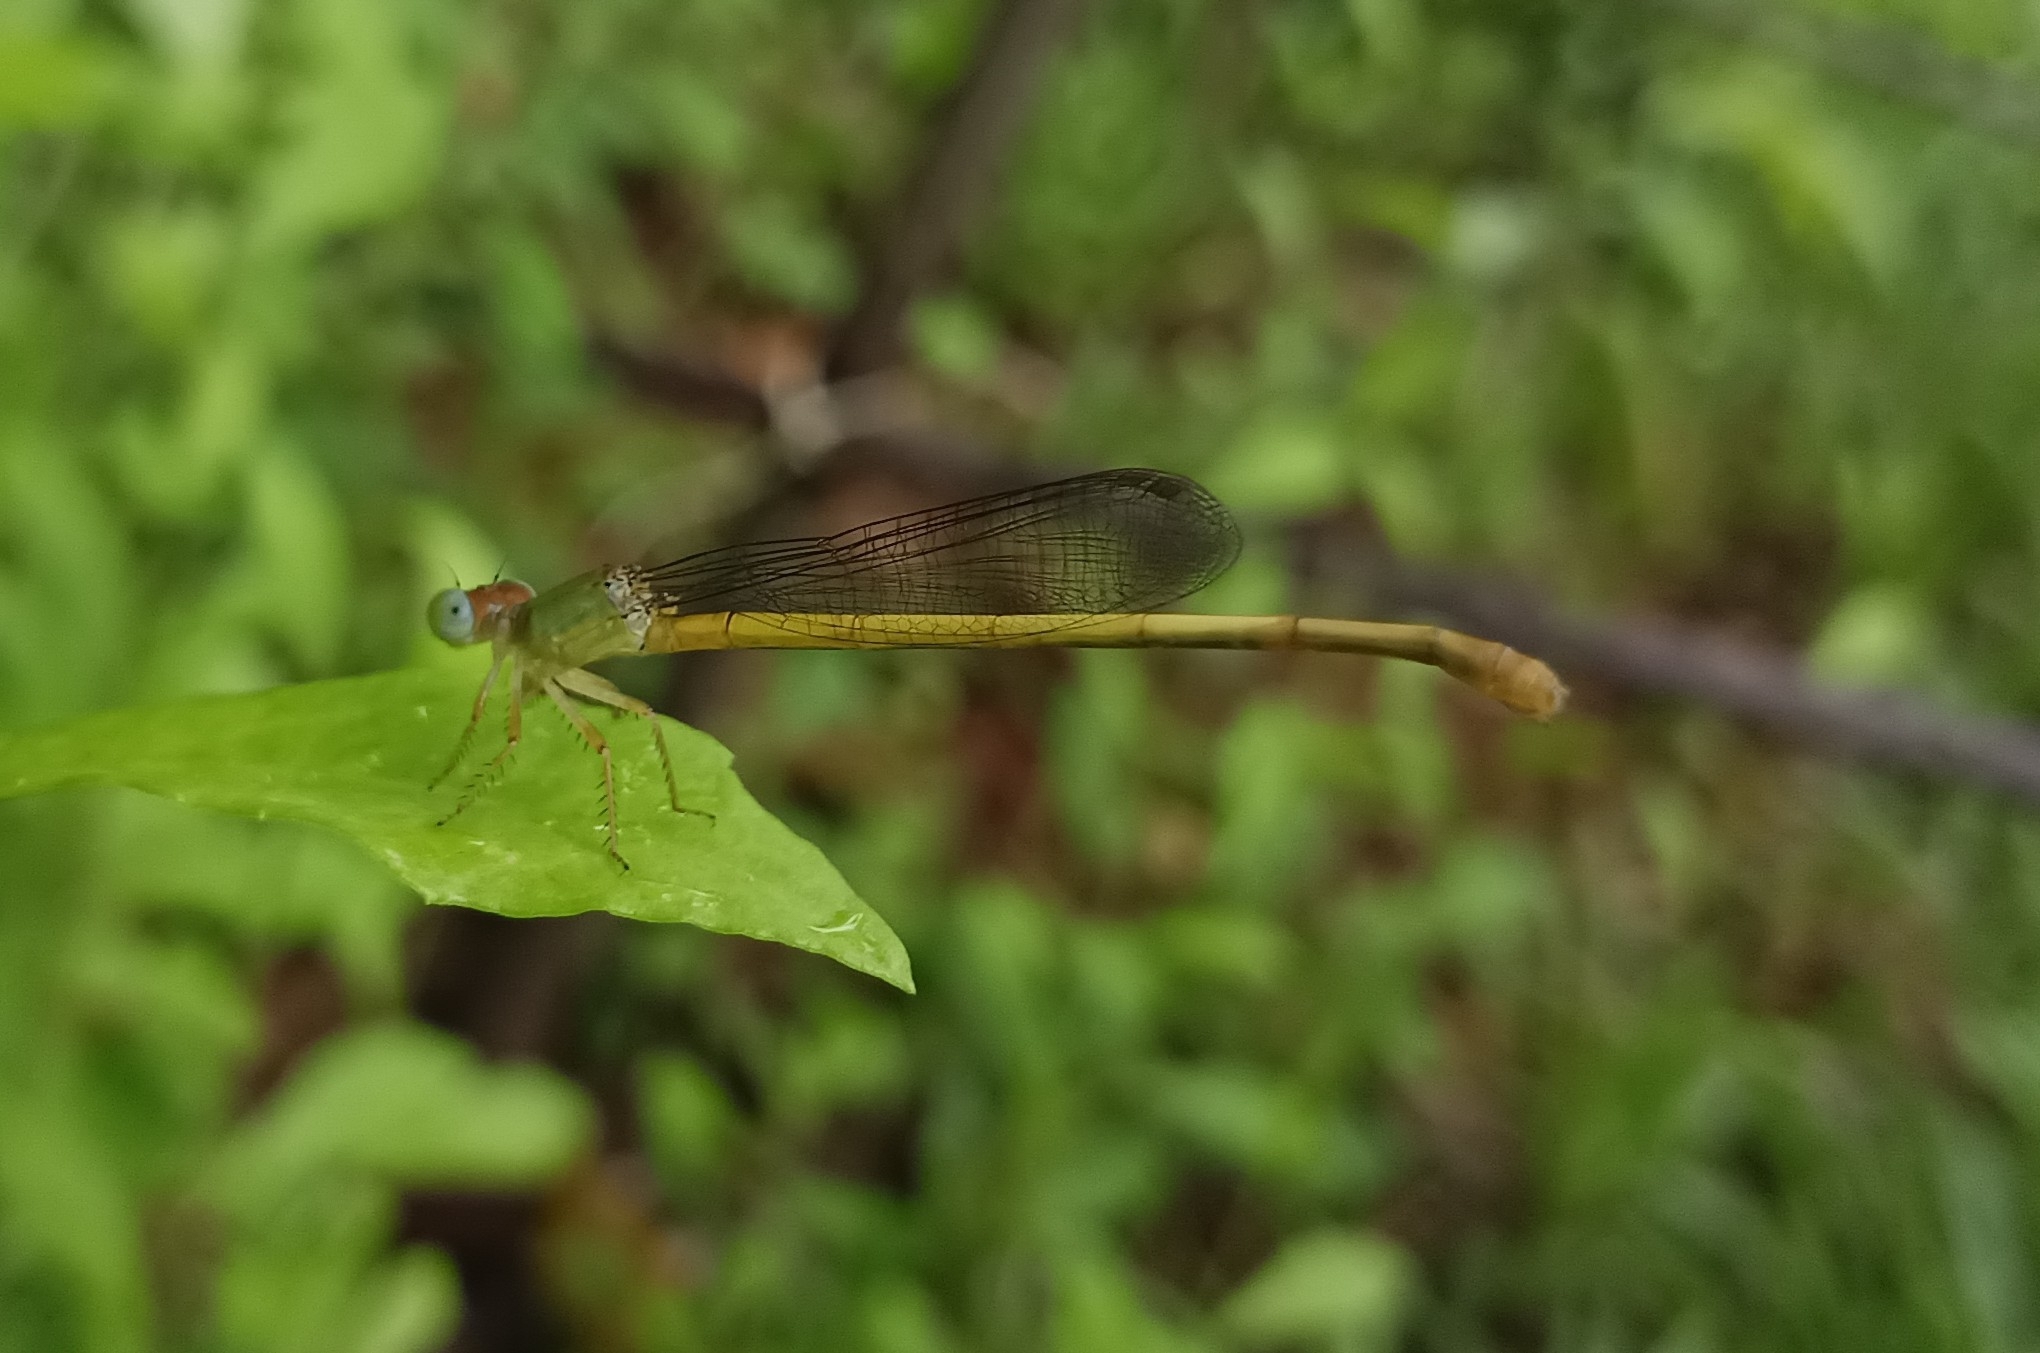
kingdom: Animalia
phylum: Arthropoda
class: Insecta
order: Odonata
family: Coenagrionidae
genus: Ceriagrion
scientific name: Ceriagrion coromandelianum
